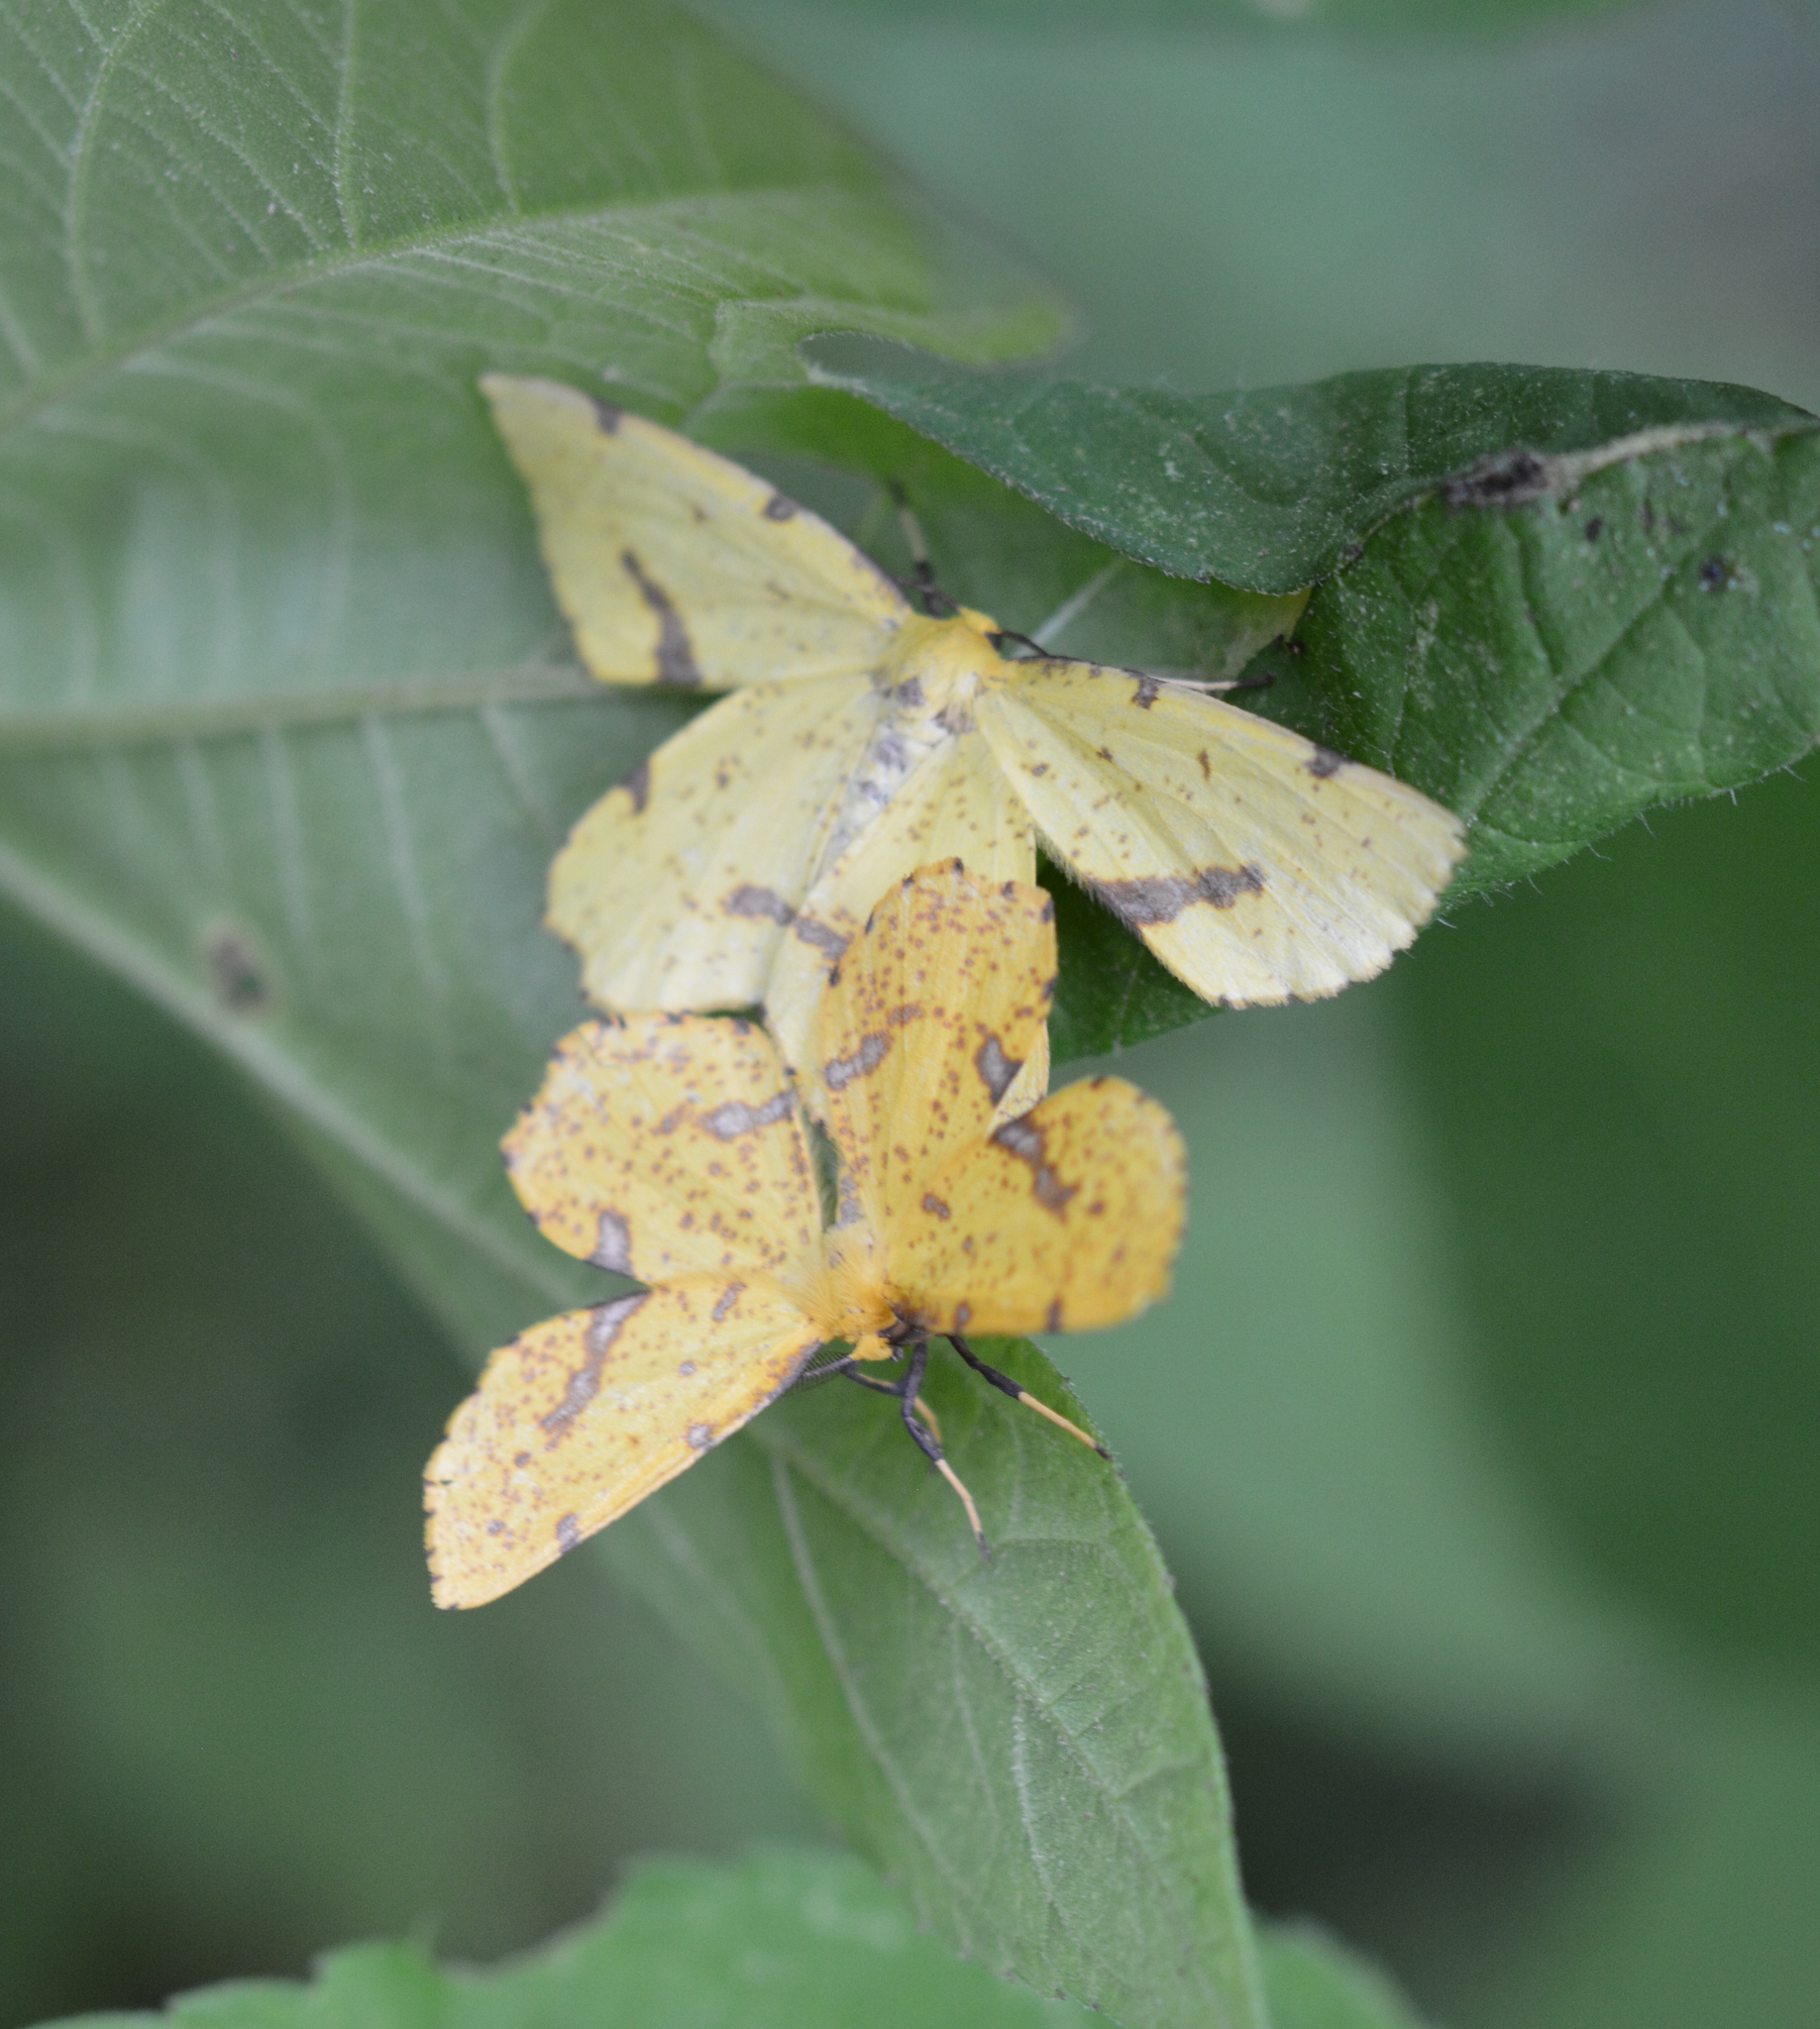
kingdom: Animalia
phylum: Arthropoda
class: Insecta
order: Lepidoptera
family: Geometridae
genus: Xanthotype
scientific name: Xanthotype
